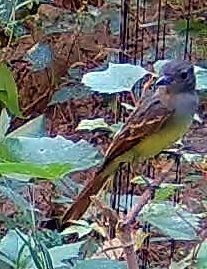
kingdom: Animalia
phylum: Chordata
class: Aves
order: Passeriformes
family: Tyrannidae
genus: Myiarchus
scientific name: Myiarchus crinitus
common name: Great crested flycatcher
